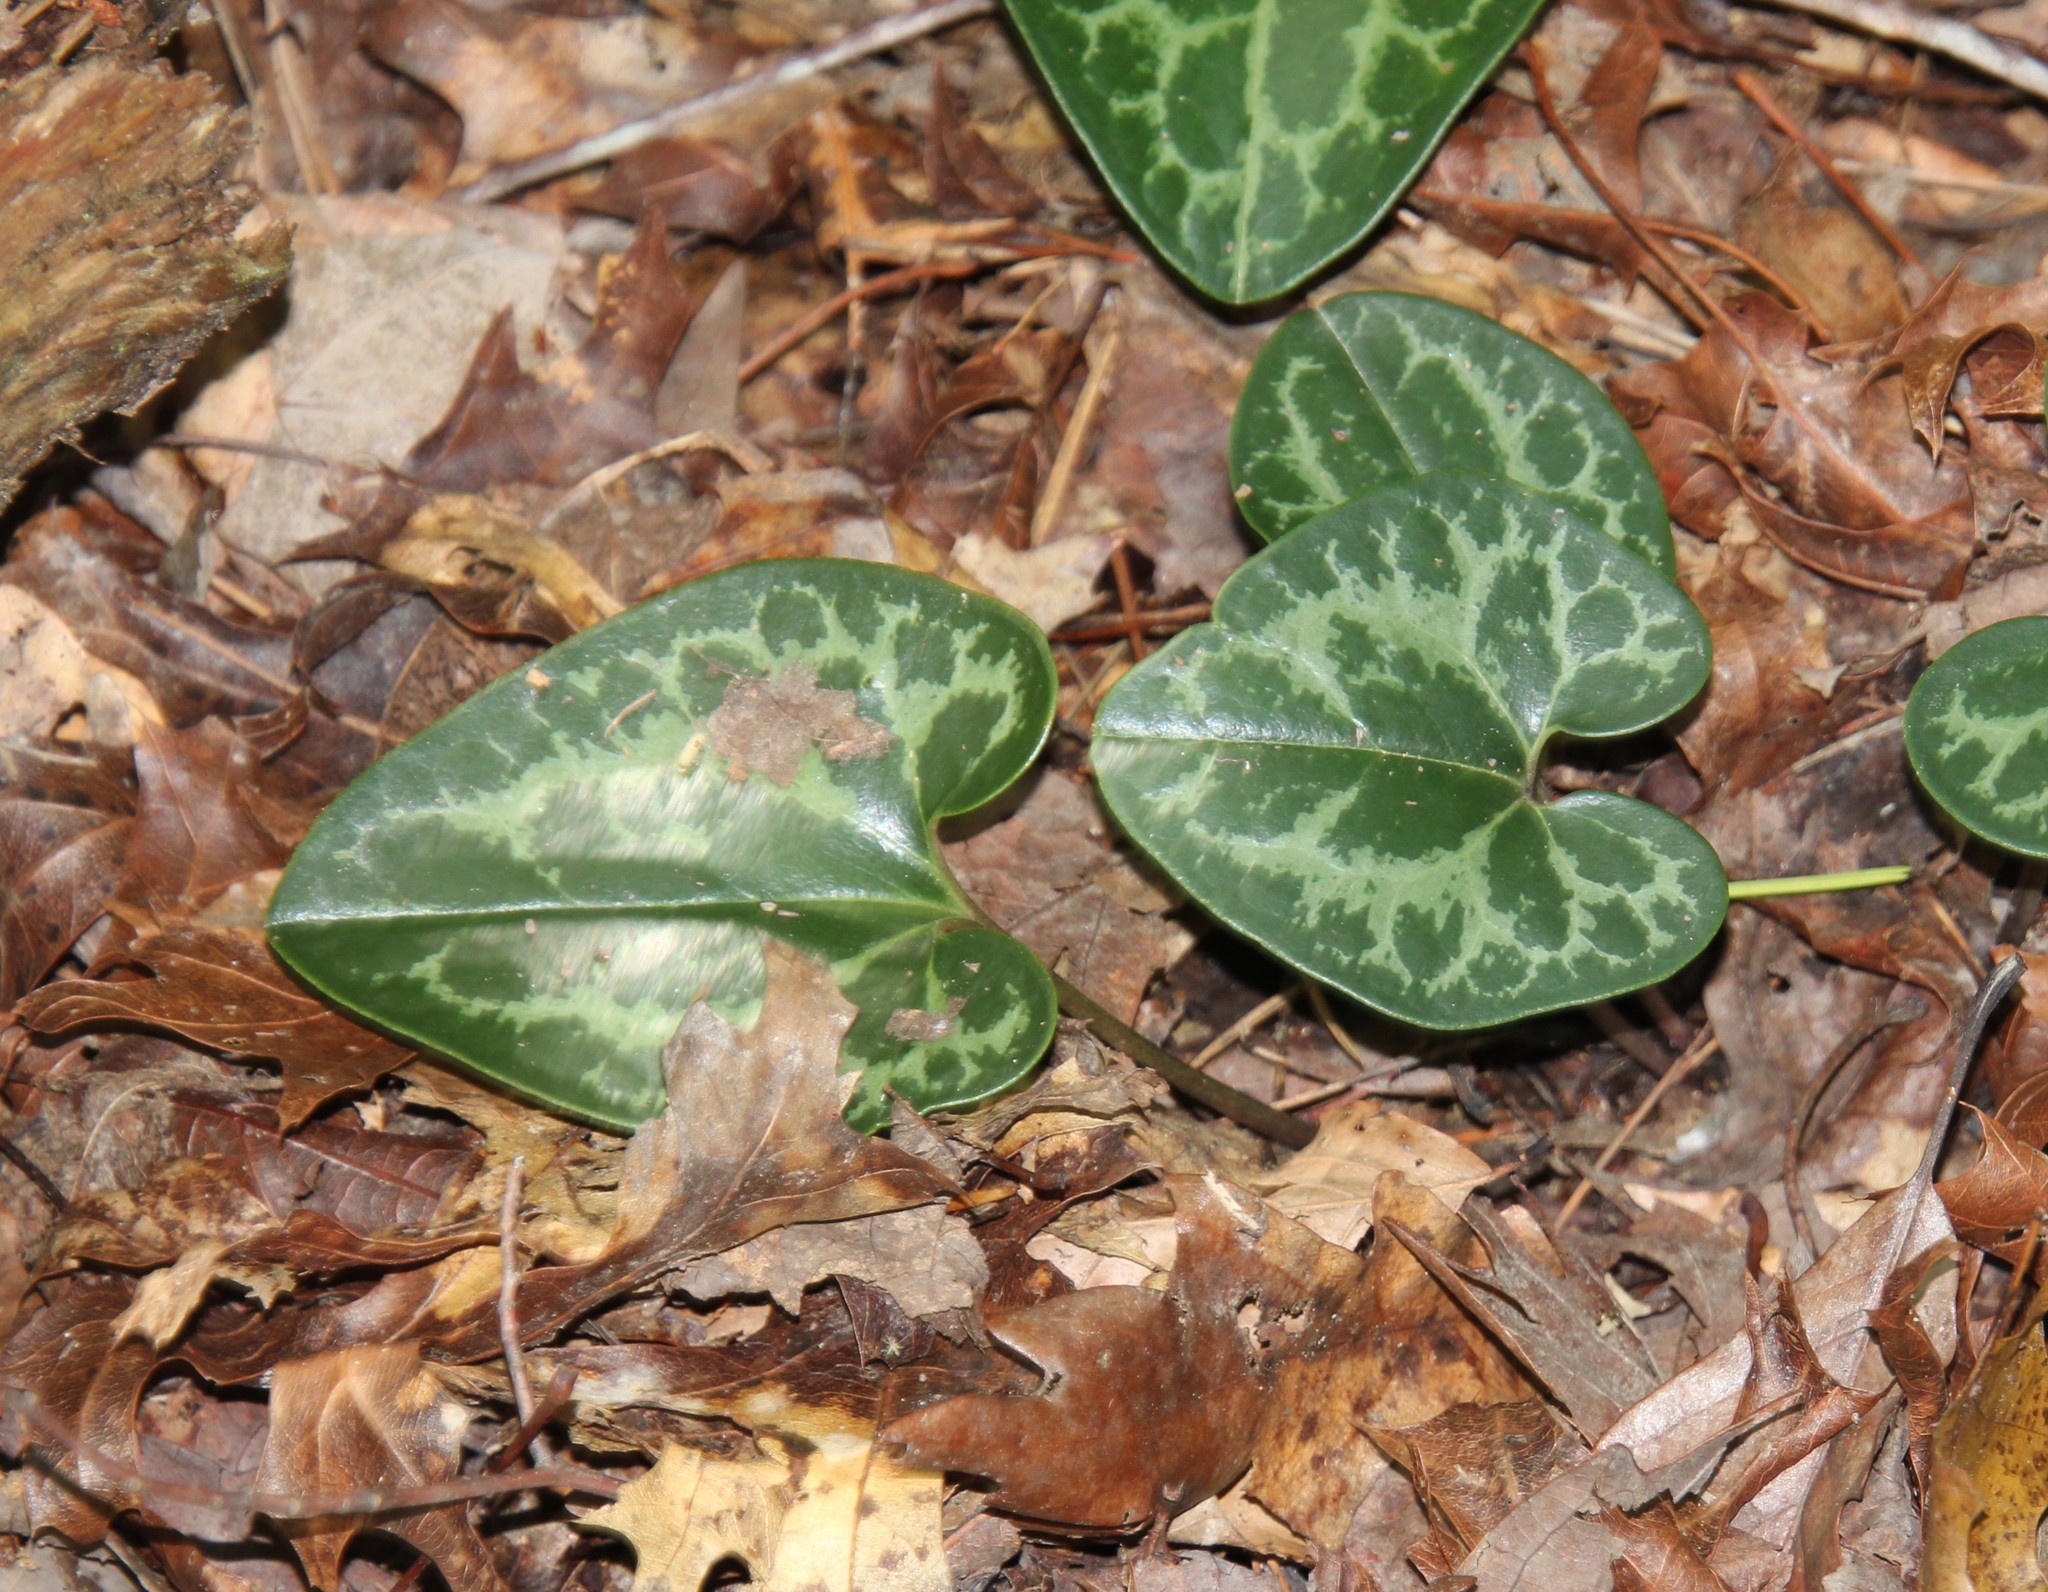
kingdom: Plantae
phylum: Tracheophyta
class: Magnoliopsida
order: Piperales
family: Aristolochiaceae
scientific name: Aristolochiaceae
